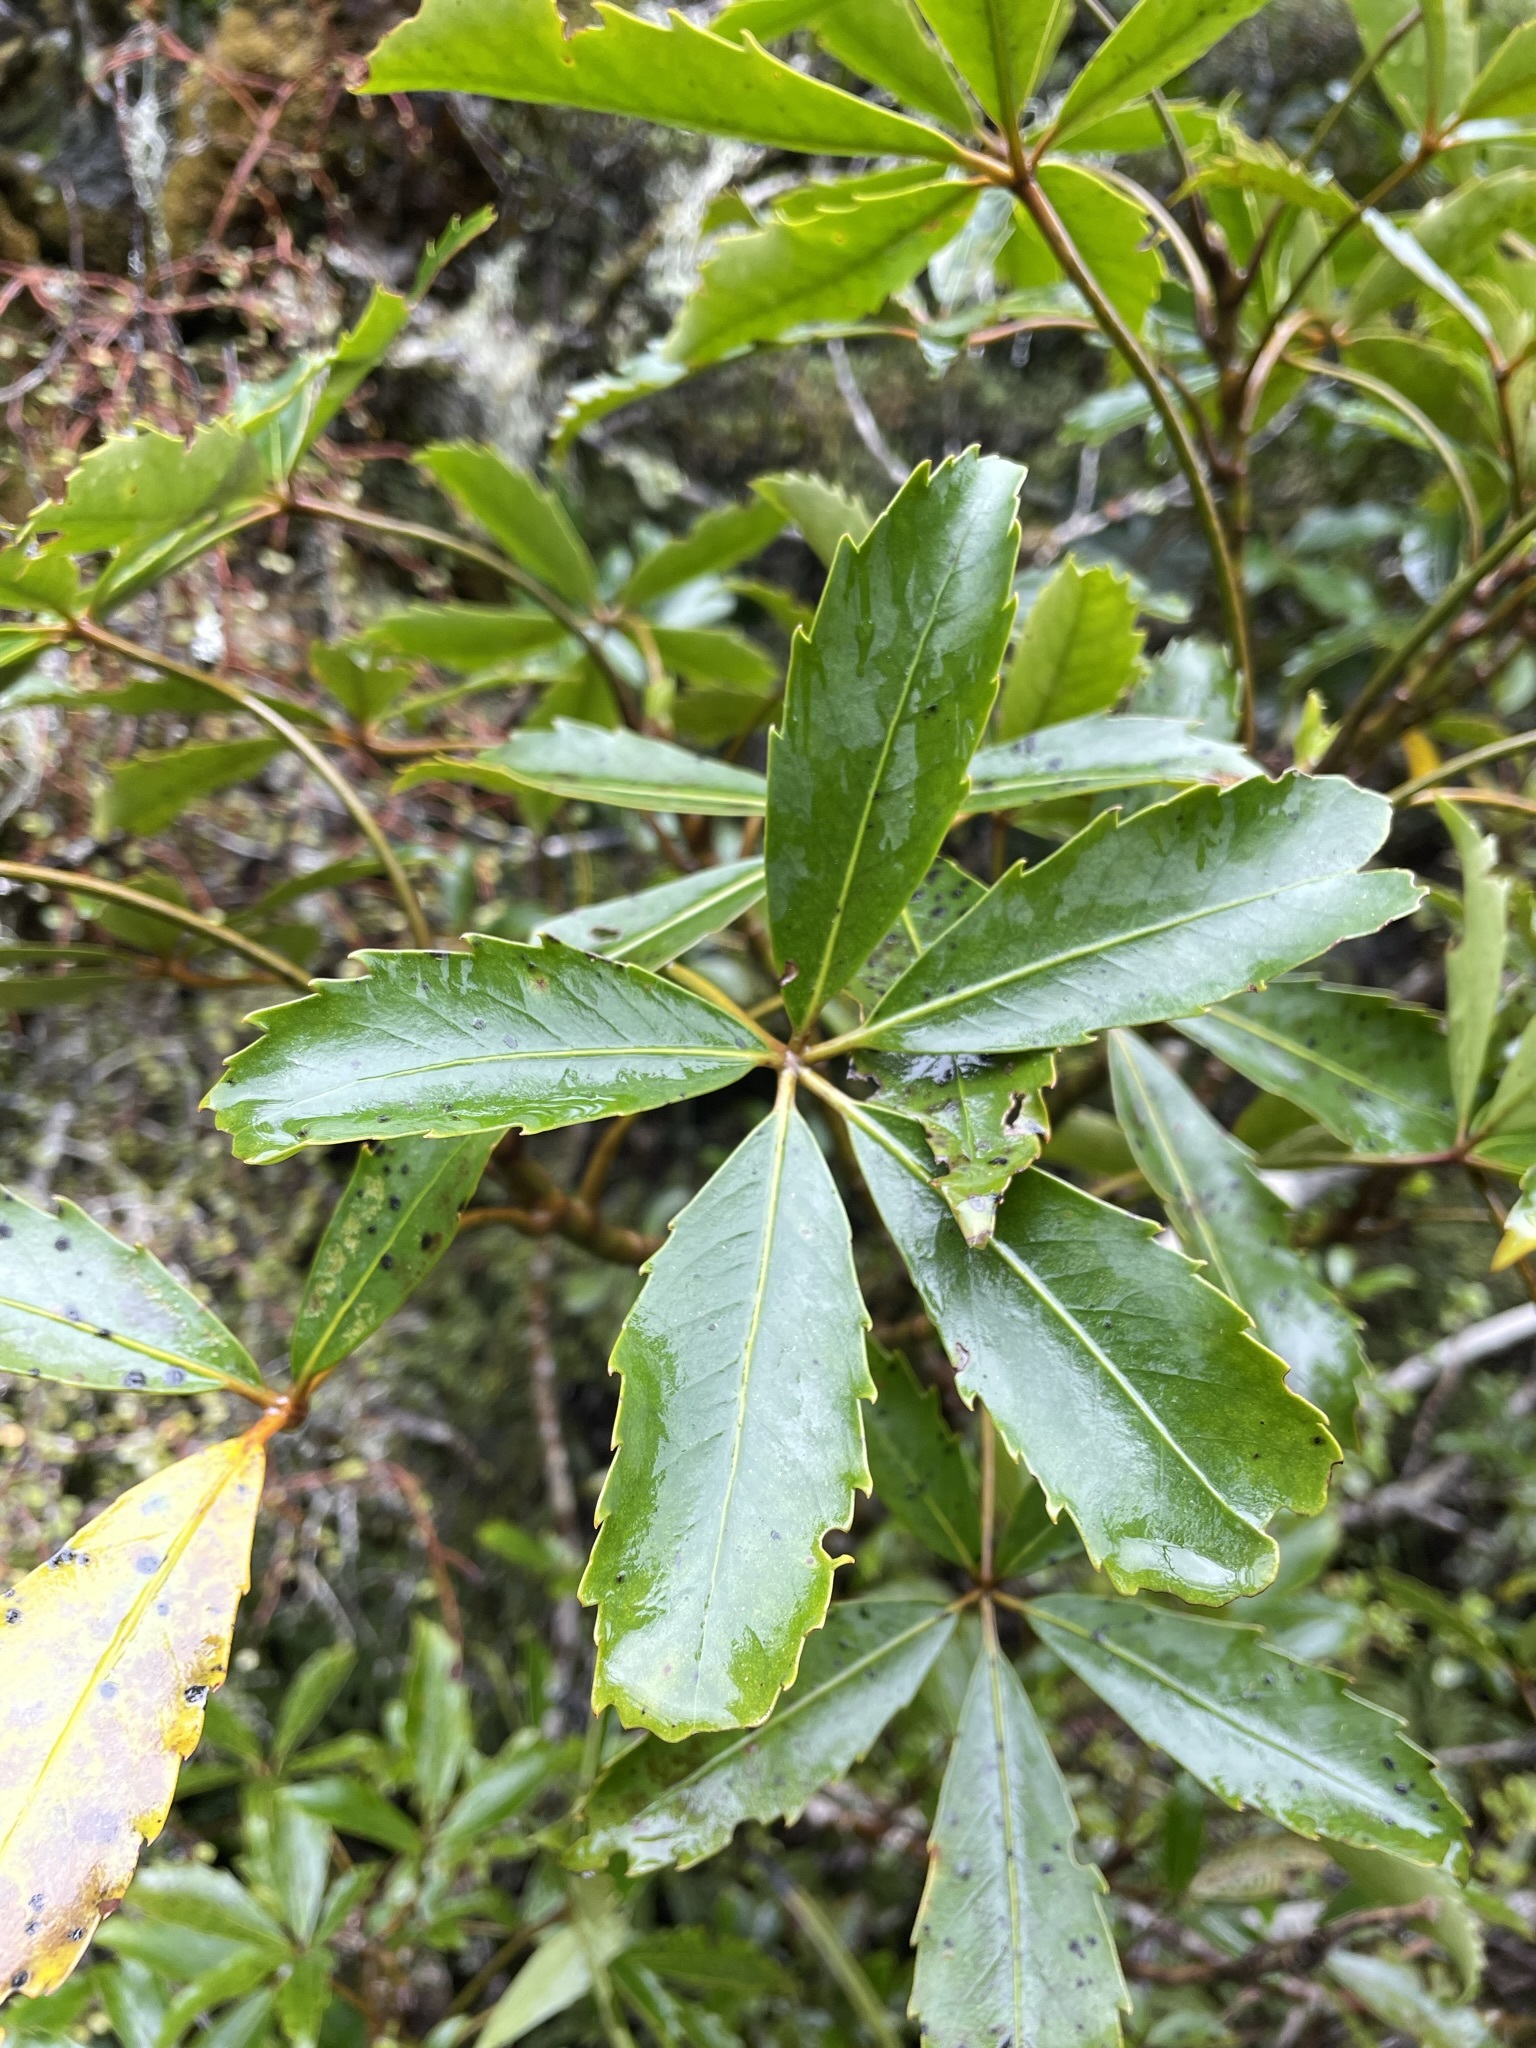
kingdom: Plantae
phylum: Tracheophyta
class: Magnoliopsida
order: Apiales
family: Araliaceae
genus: Neopanax
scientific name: Neopanax arboreus
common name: Five-fingers
